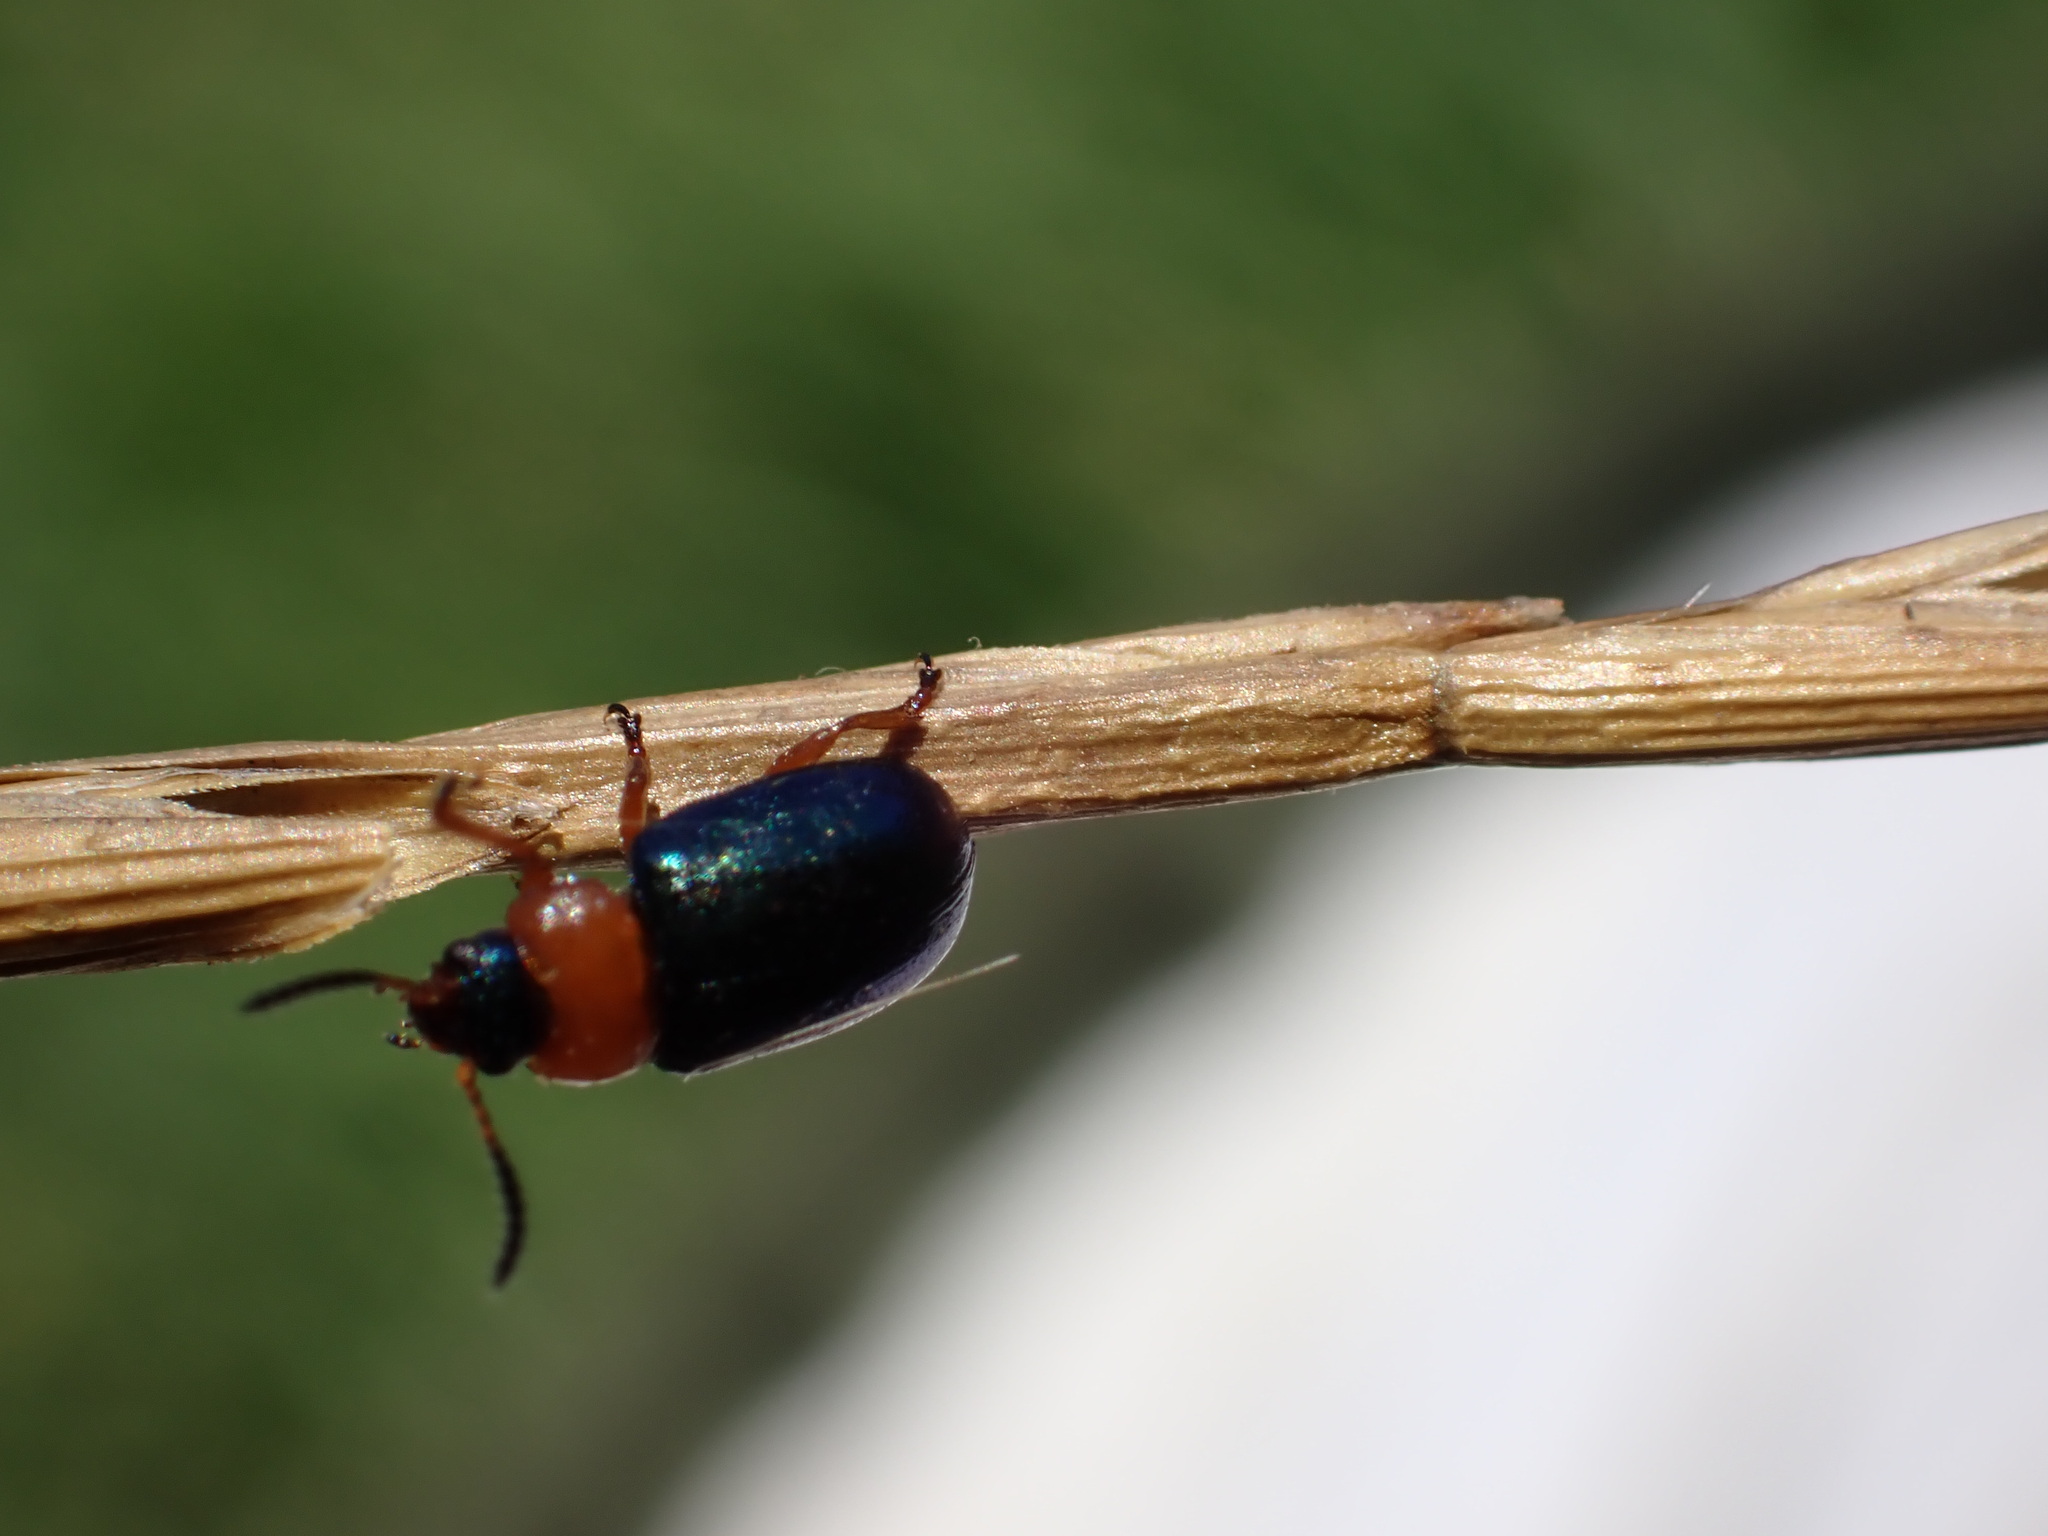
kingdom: Animalia
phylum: Arthropoda
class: Insecta
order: Coleoptera
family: Chrysomelidae
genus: Gastrophysa
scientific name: Gastrophysa polygoni
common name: Knotweed leaf beetle
